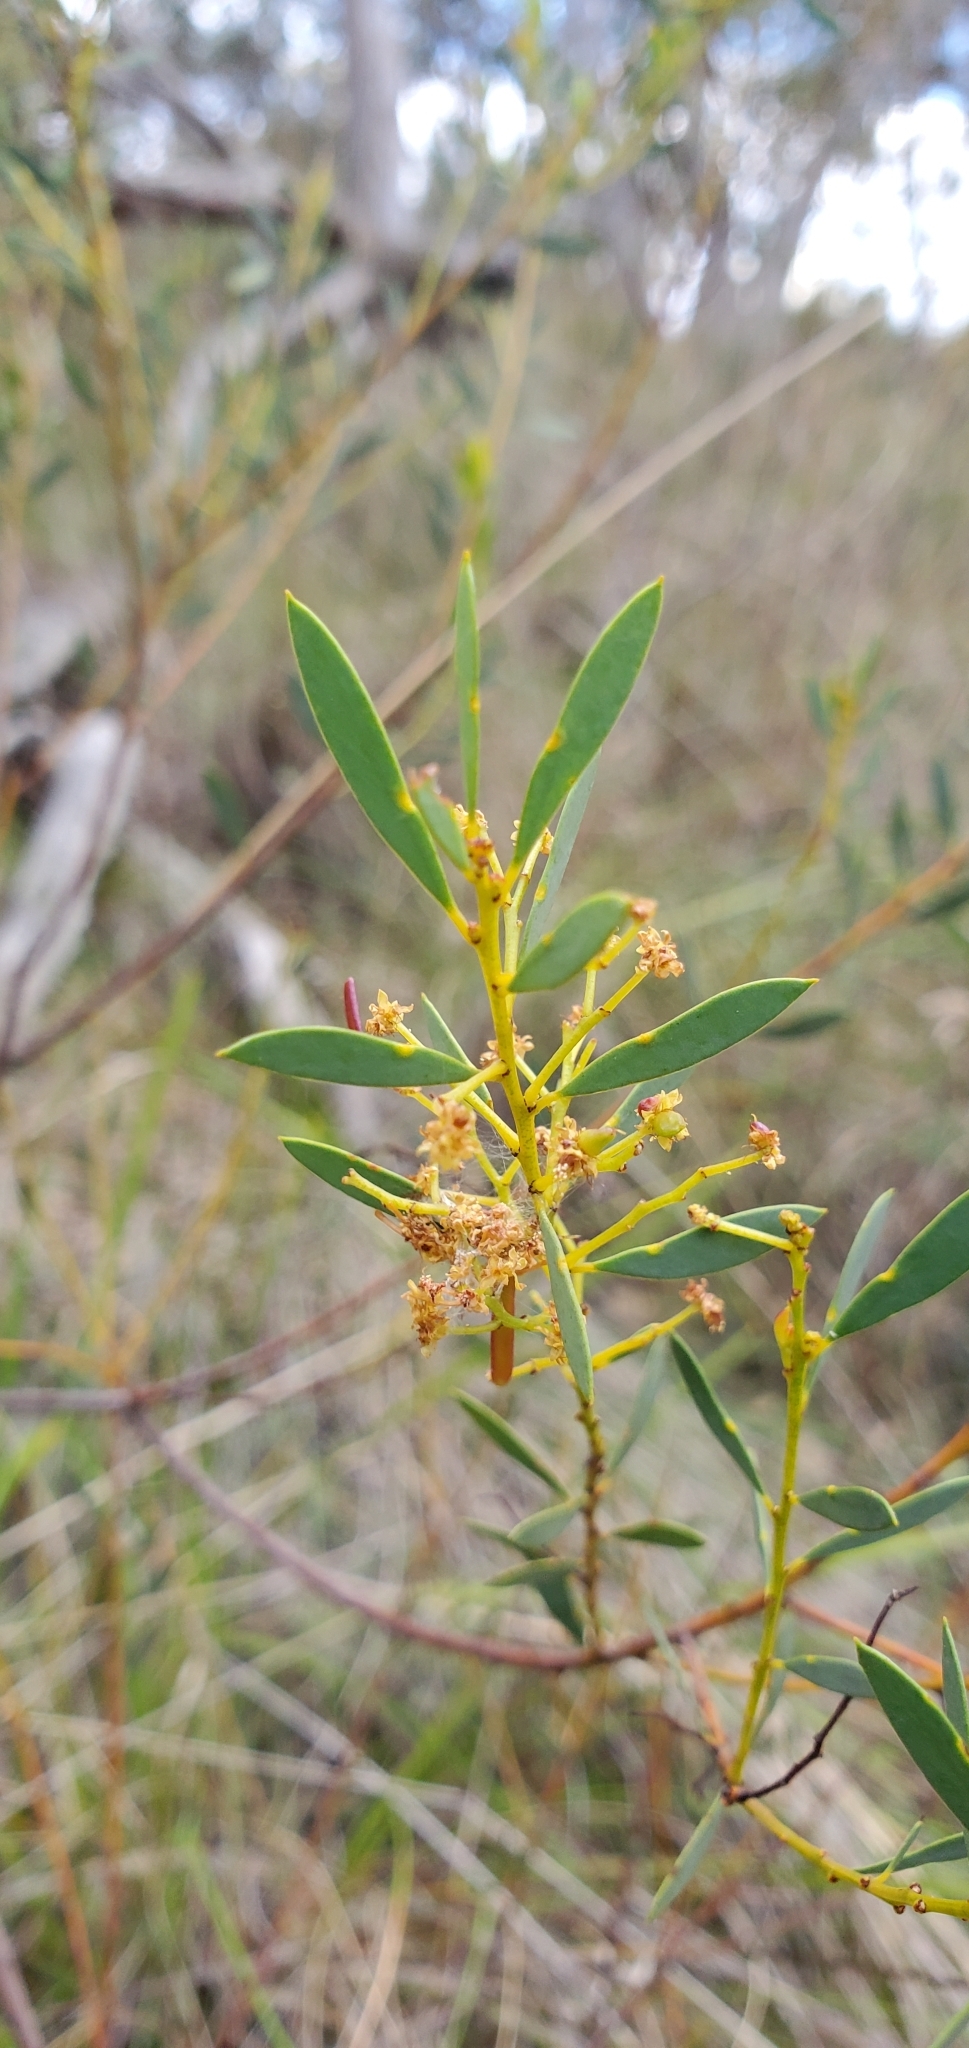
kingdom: Plantae
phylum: Tracheophyta
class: Magnoliopsida
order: Fabales
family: Fabaceae
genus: Acacia
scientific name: Acacia buxifolia
